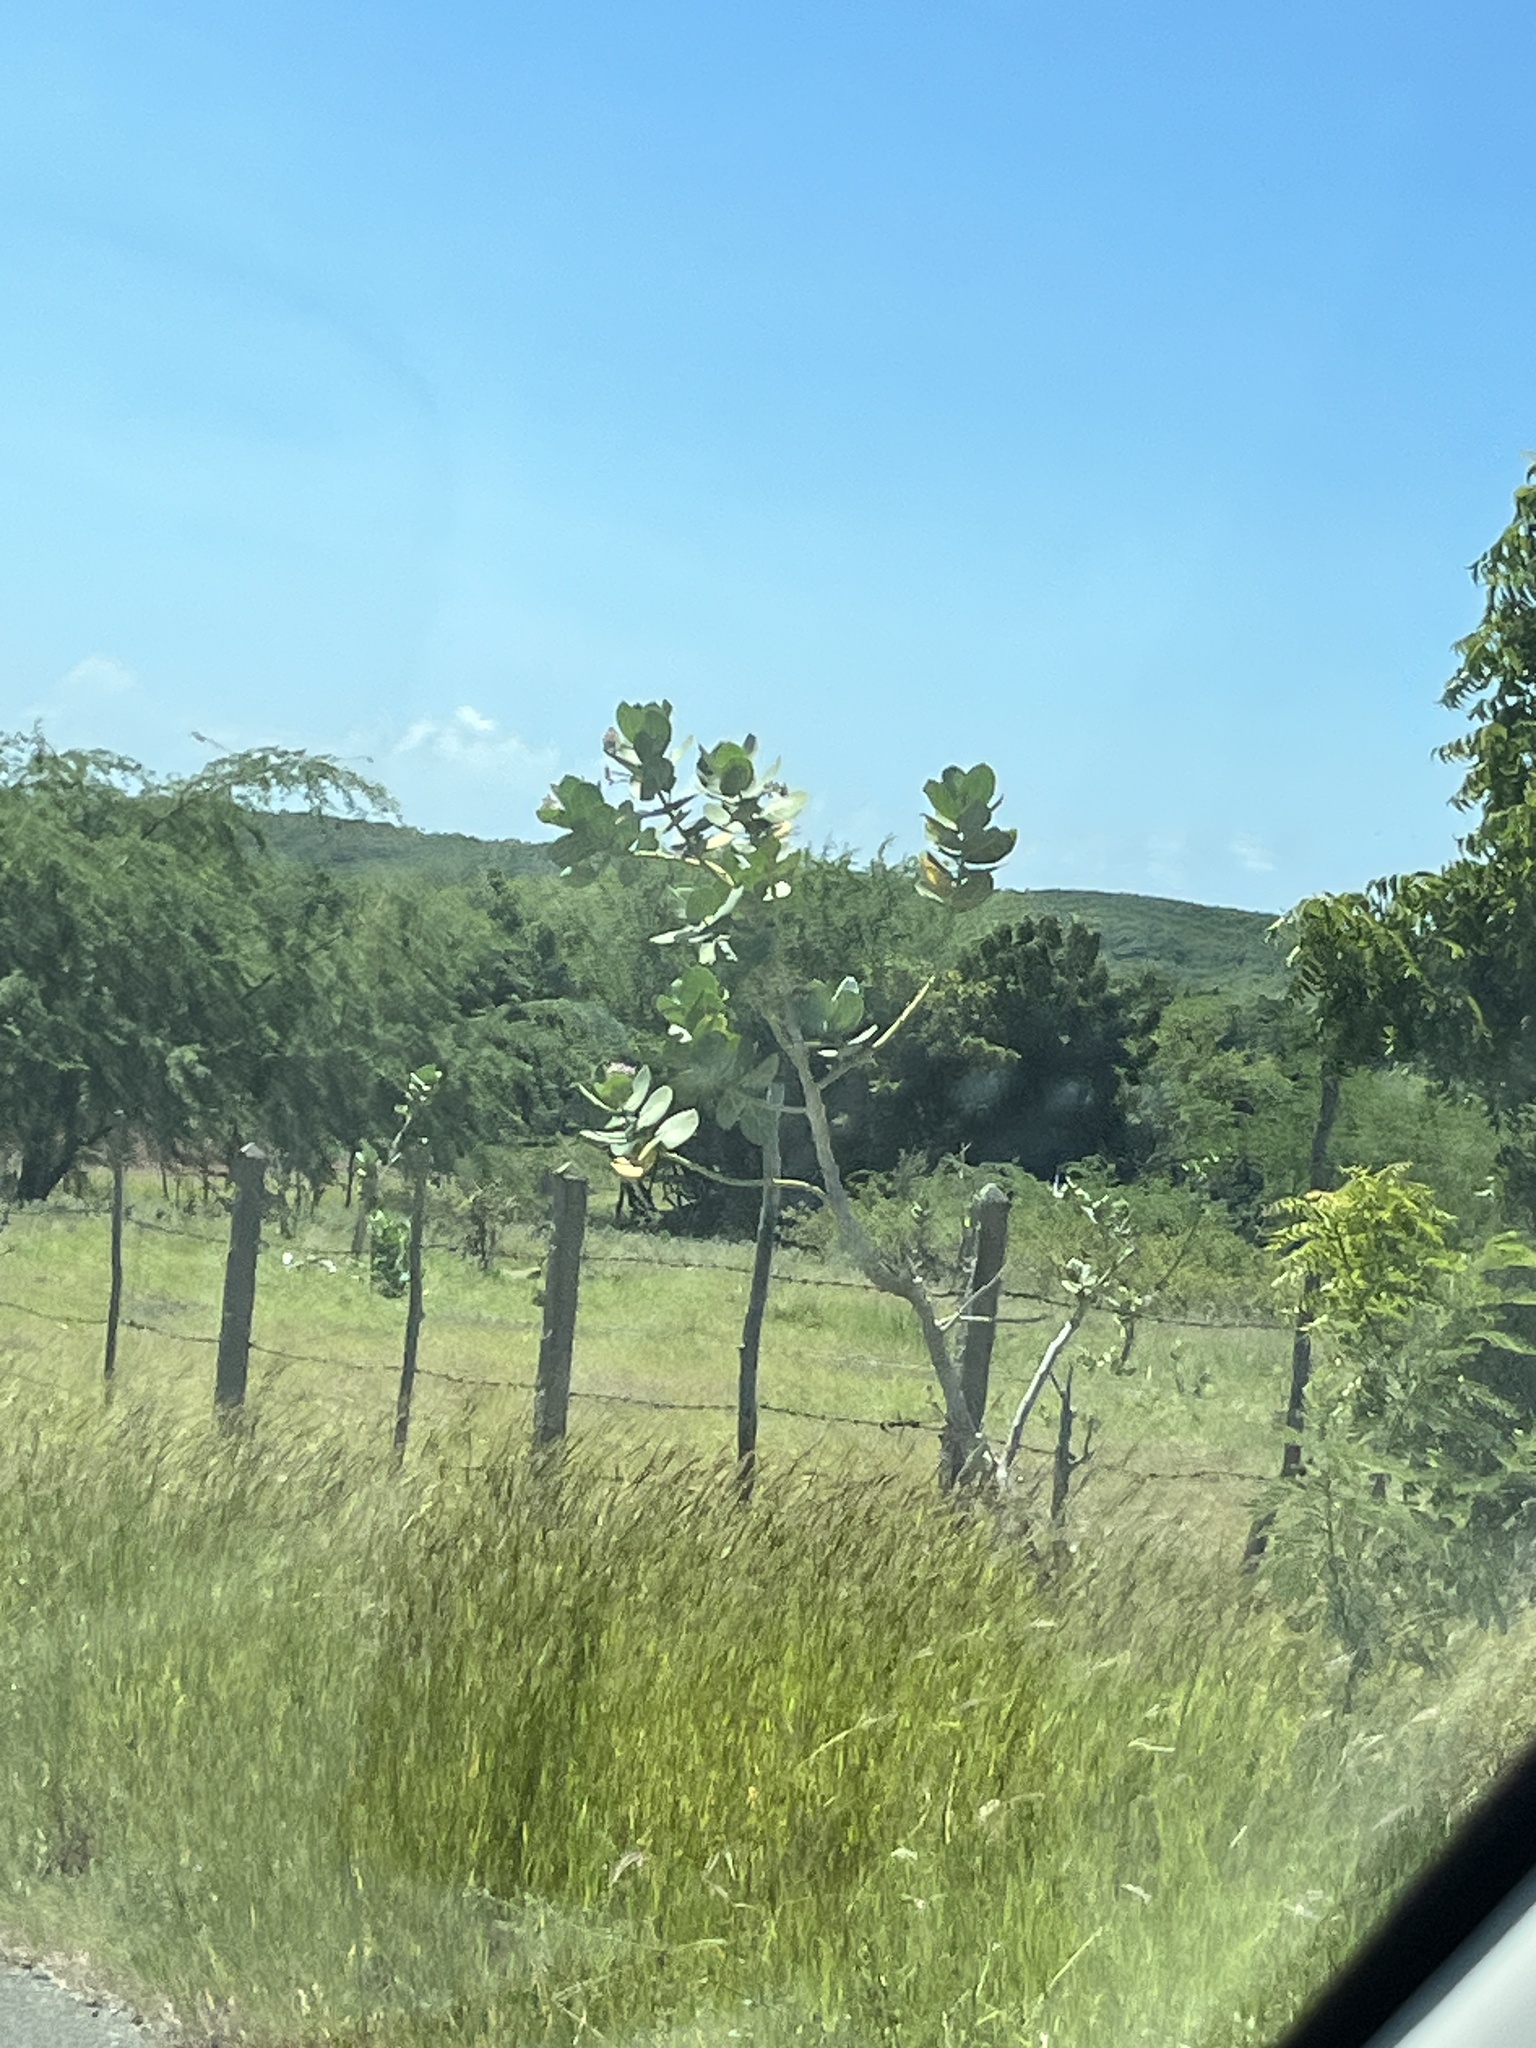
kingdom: Plantae
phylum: Tracheophyta
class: Magnoliopsida
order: Gentianales
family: Apocynaceae
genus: Calotropis
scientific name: Calotropis procera
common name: Roostertree
